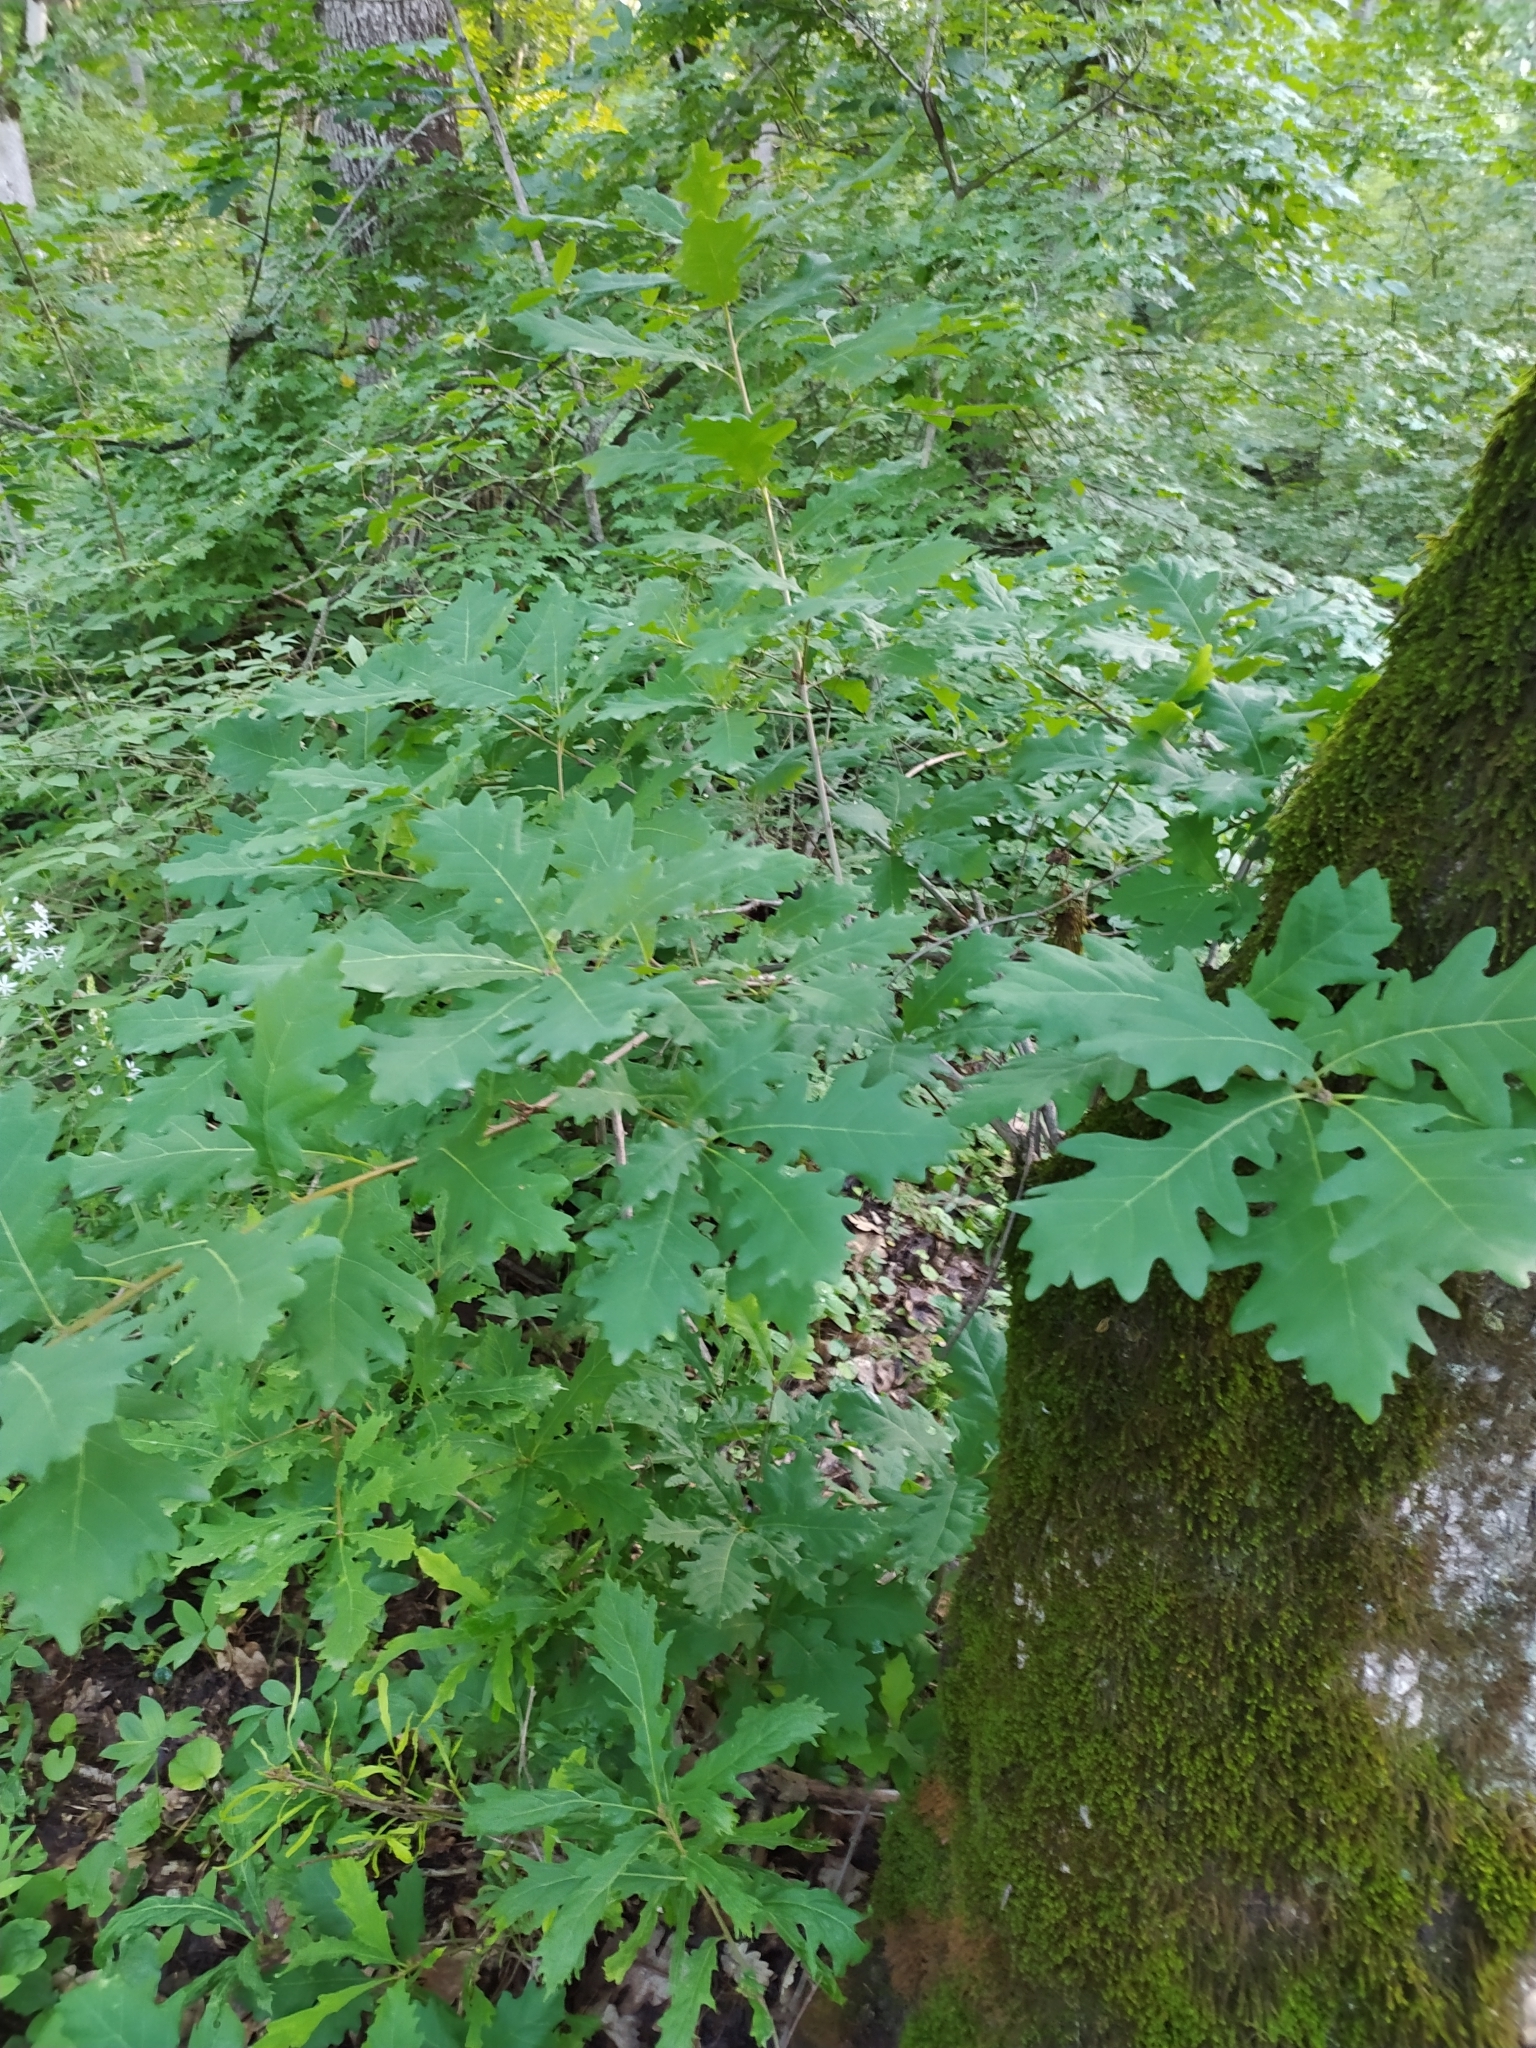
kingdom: Plantae
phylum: Tracheophyta
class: Magnoliopsida
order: Fagales
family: Fagaceae
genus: Quercus
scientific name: Quercus robur
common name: Pedunculate oak
